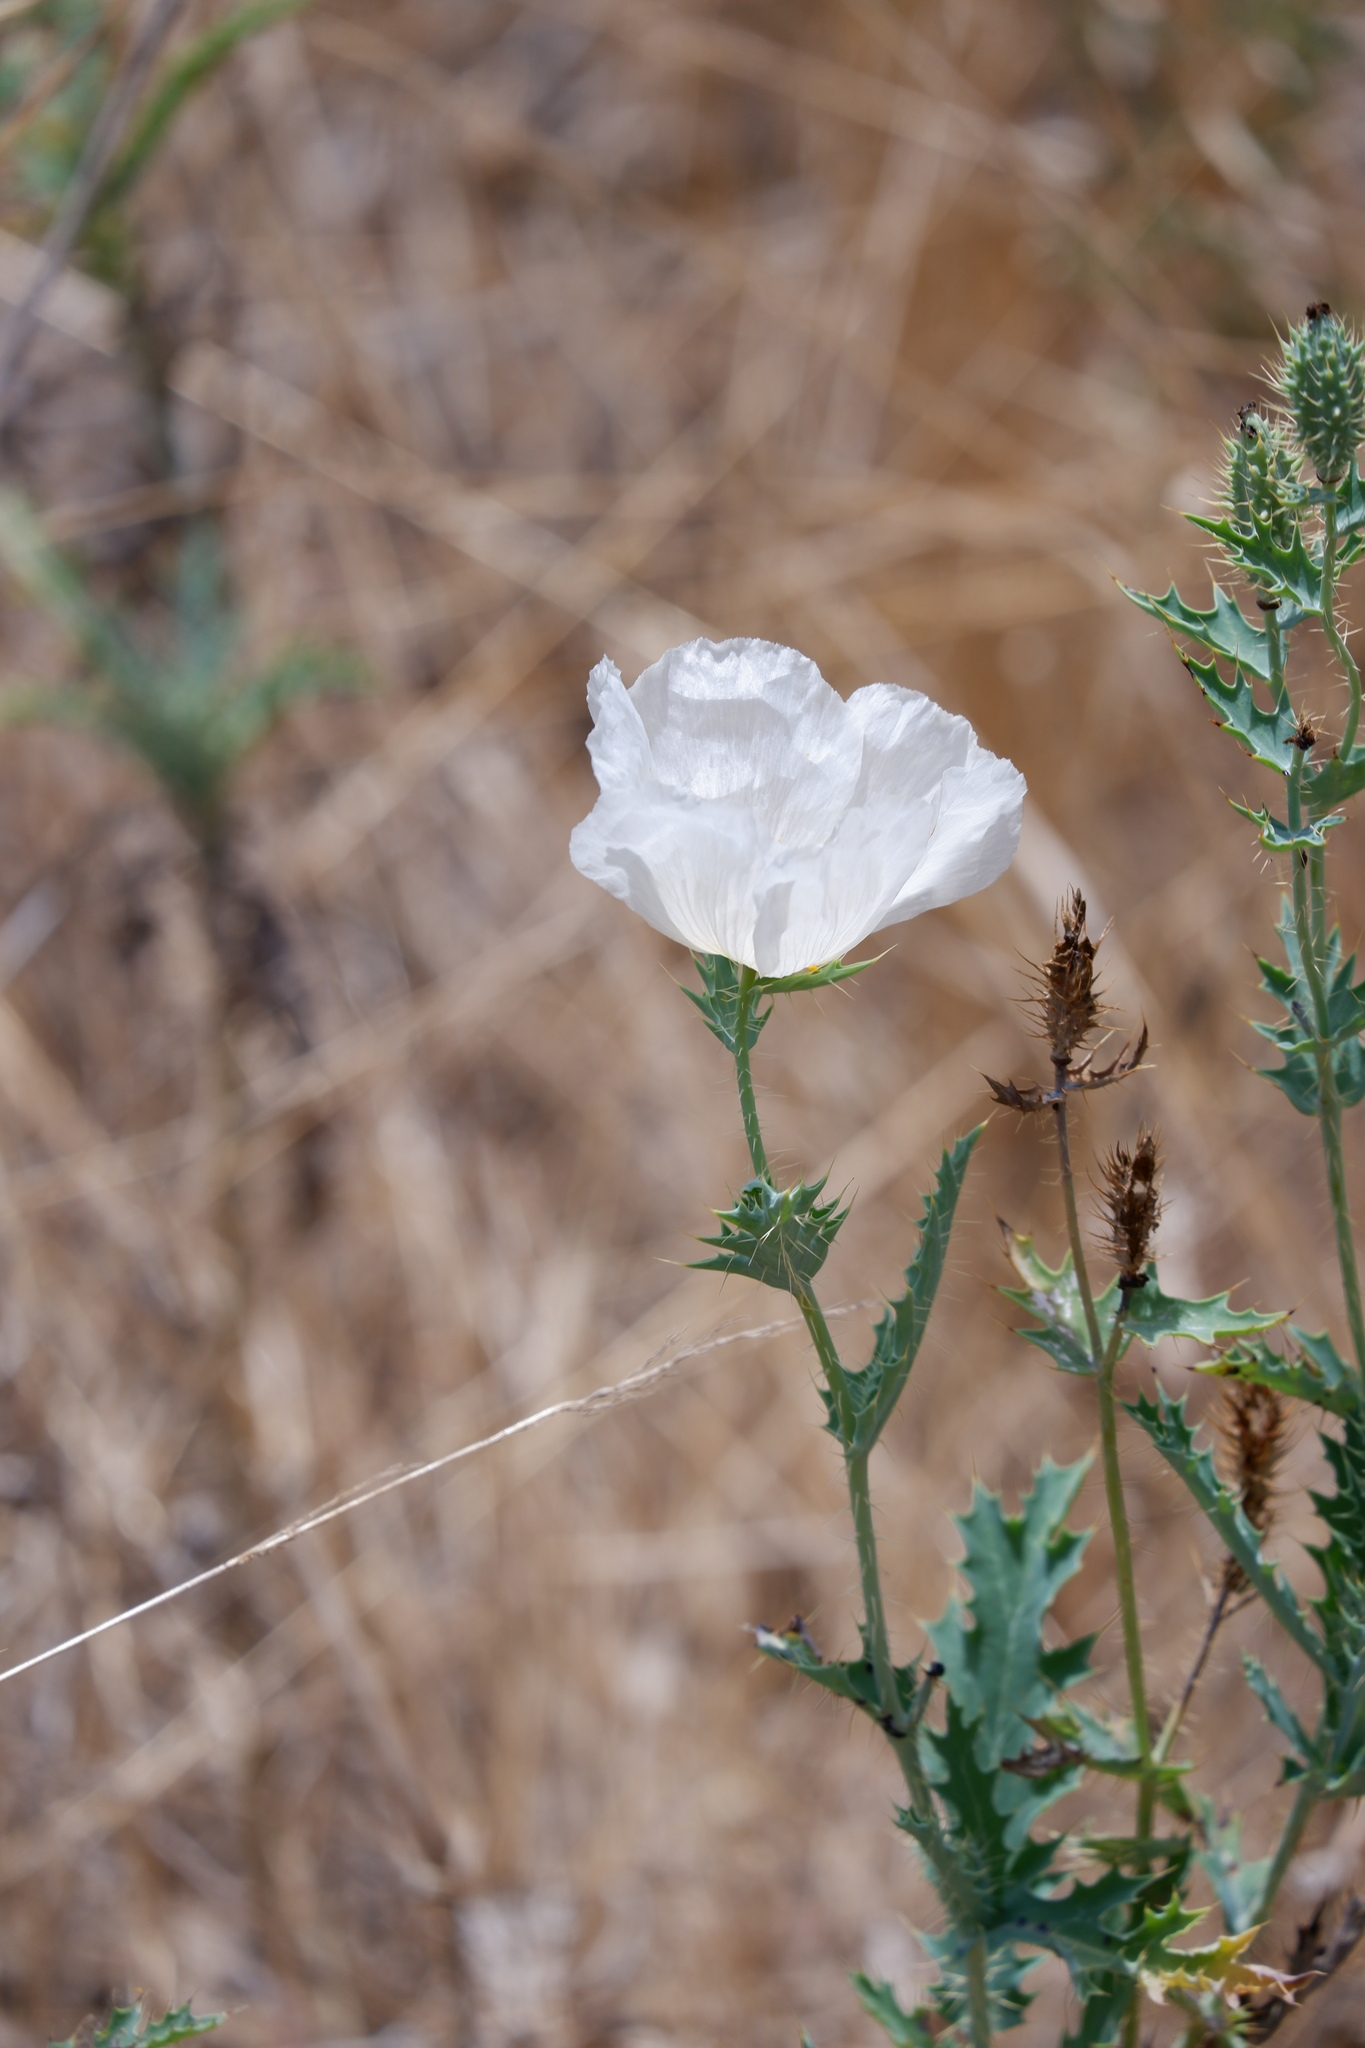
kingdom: Plantae
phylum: Tracheophyta
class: Magnoliopsida
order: Ranunculales
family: Papaveraceae
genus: Argemone
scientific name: Argemone albiflora
